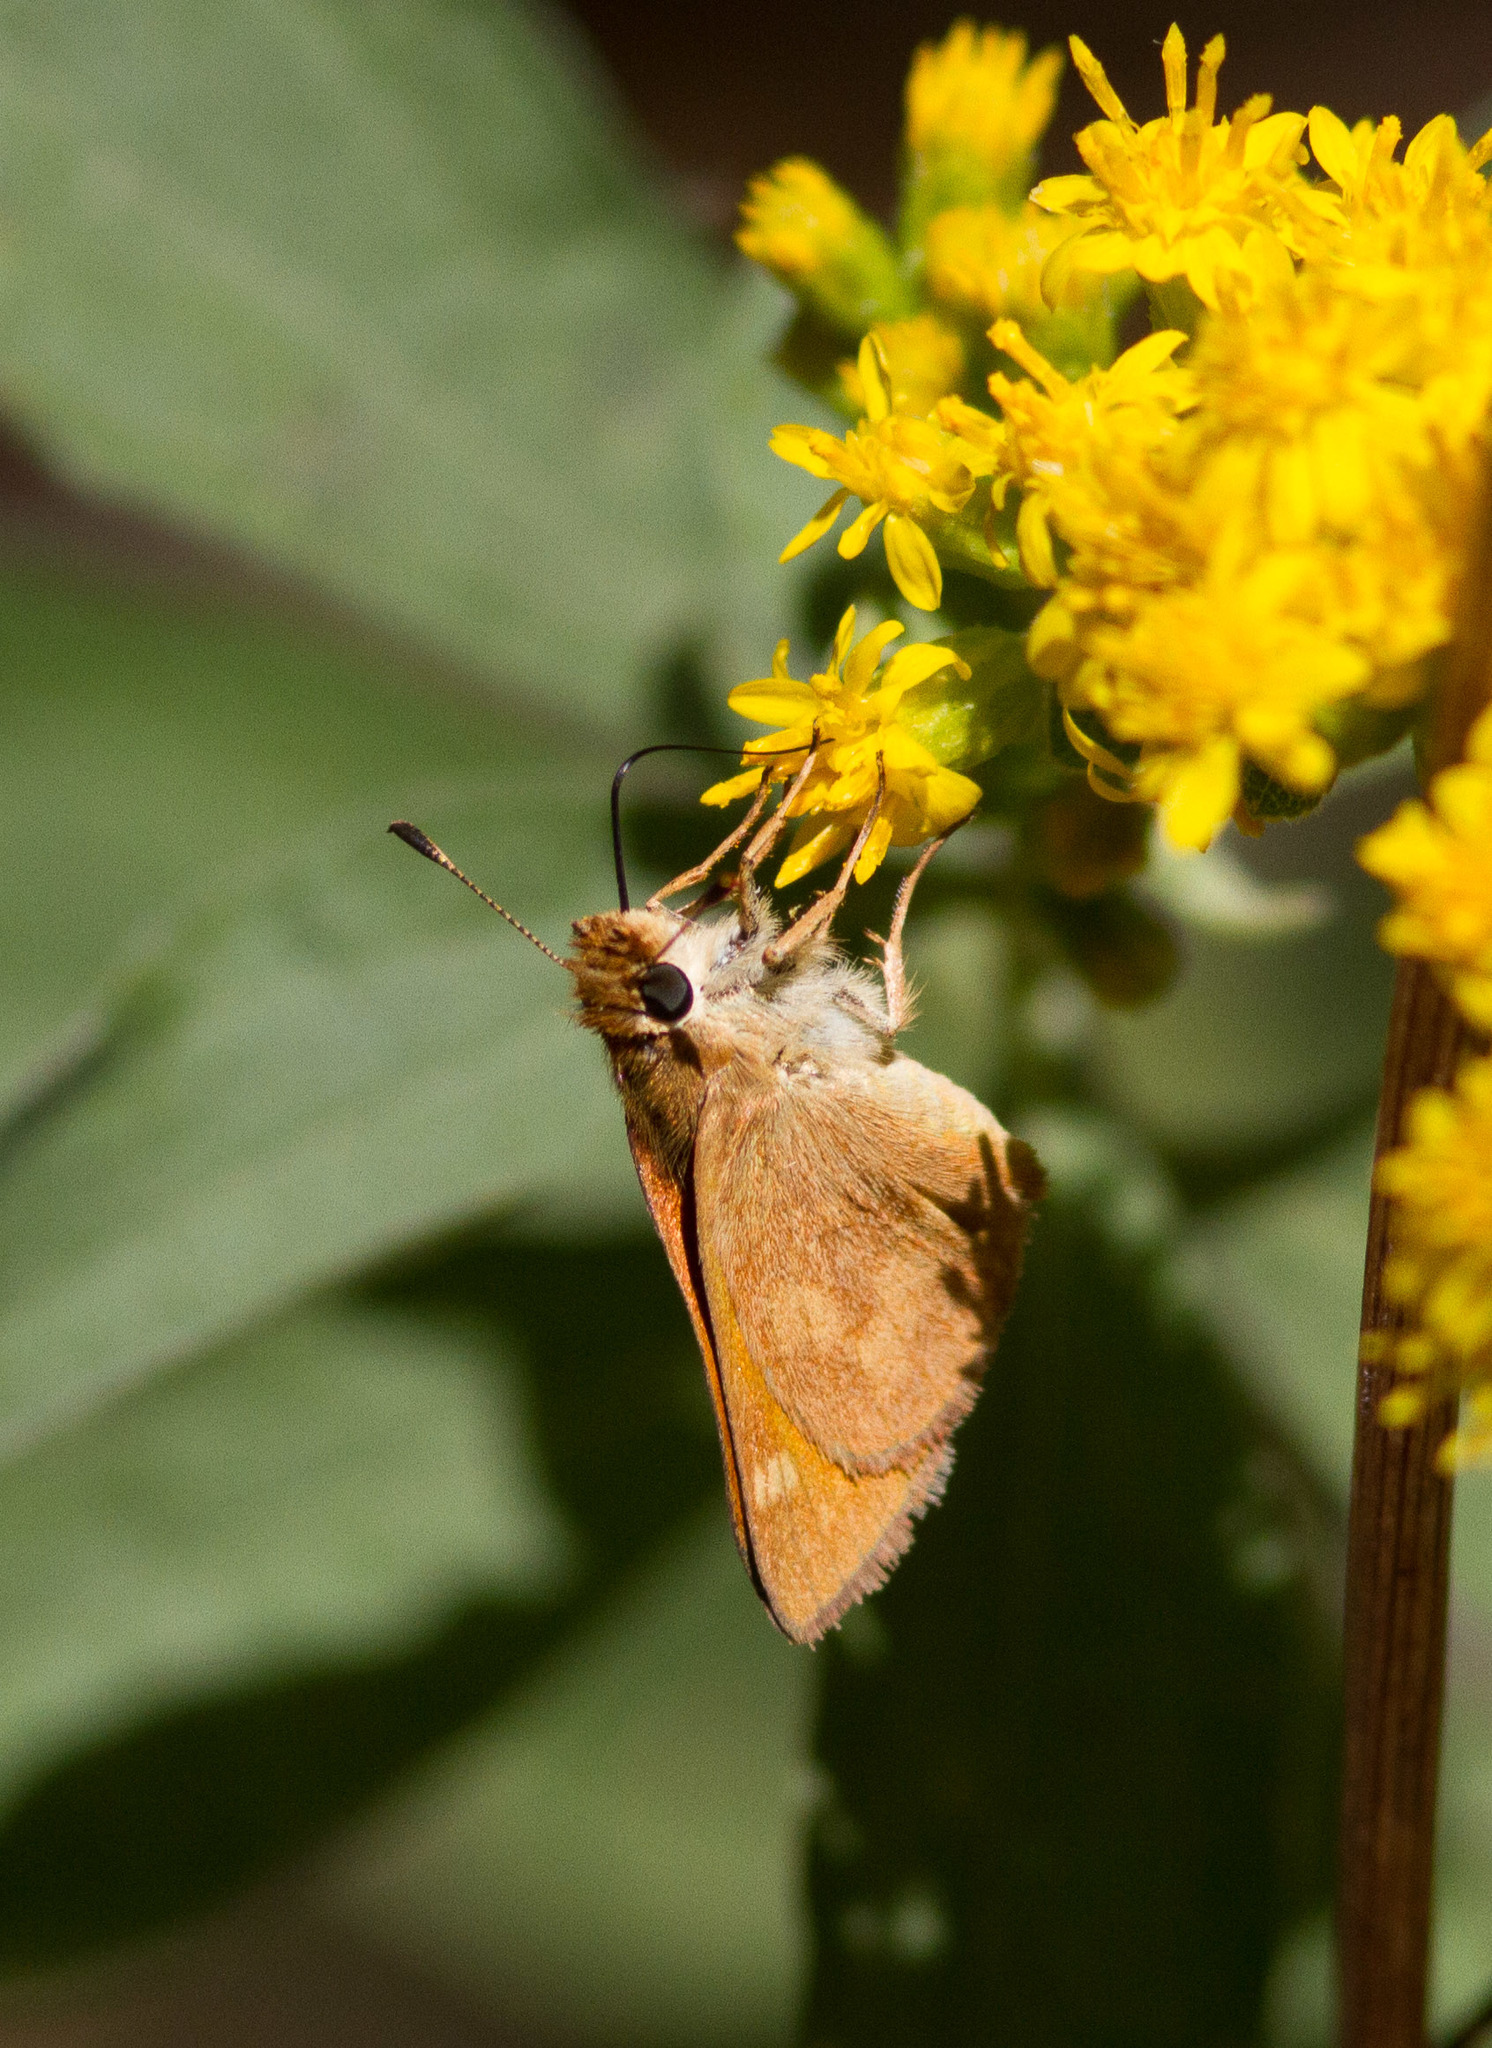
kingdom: Animalia
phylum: Arthropoda
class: Insecta
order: Lepidoptera
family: Hesperiidae
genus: Lon
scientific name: Lon melane
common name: Umber skipper
